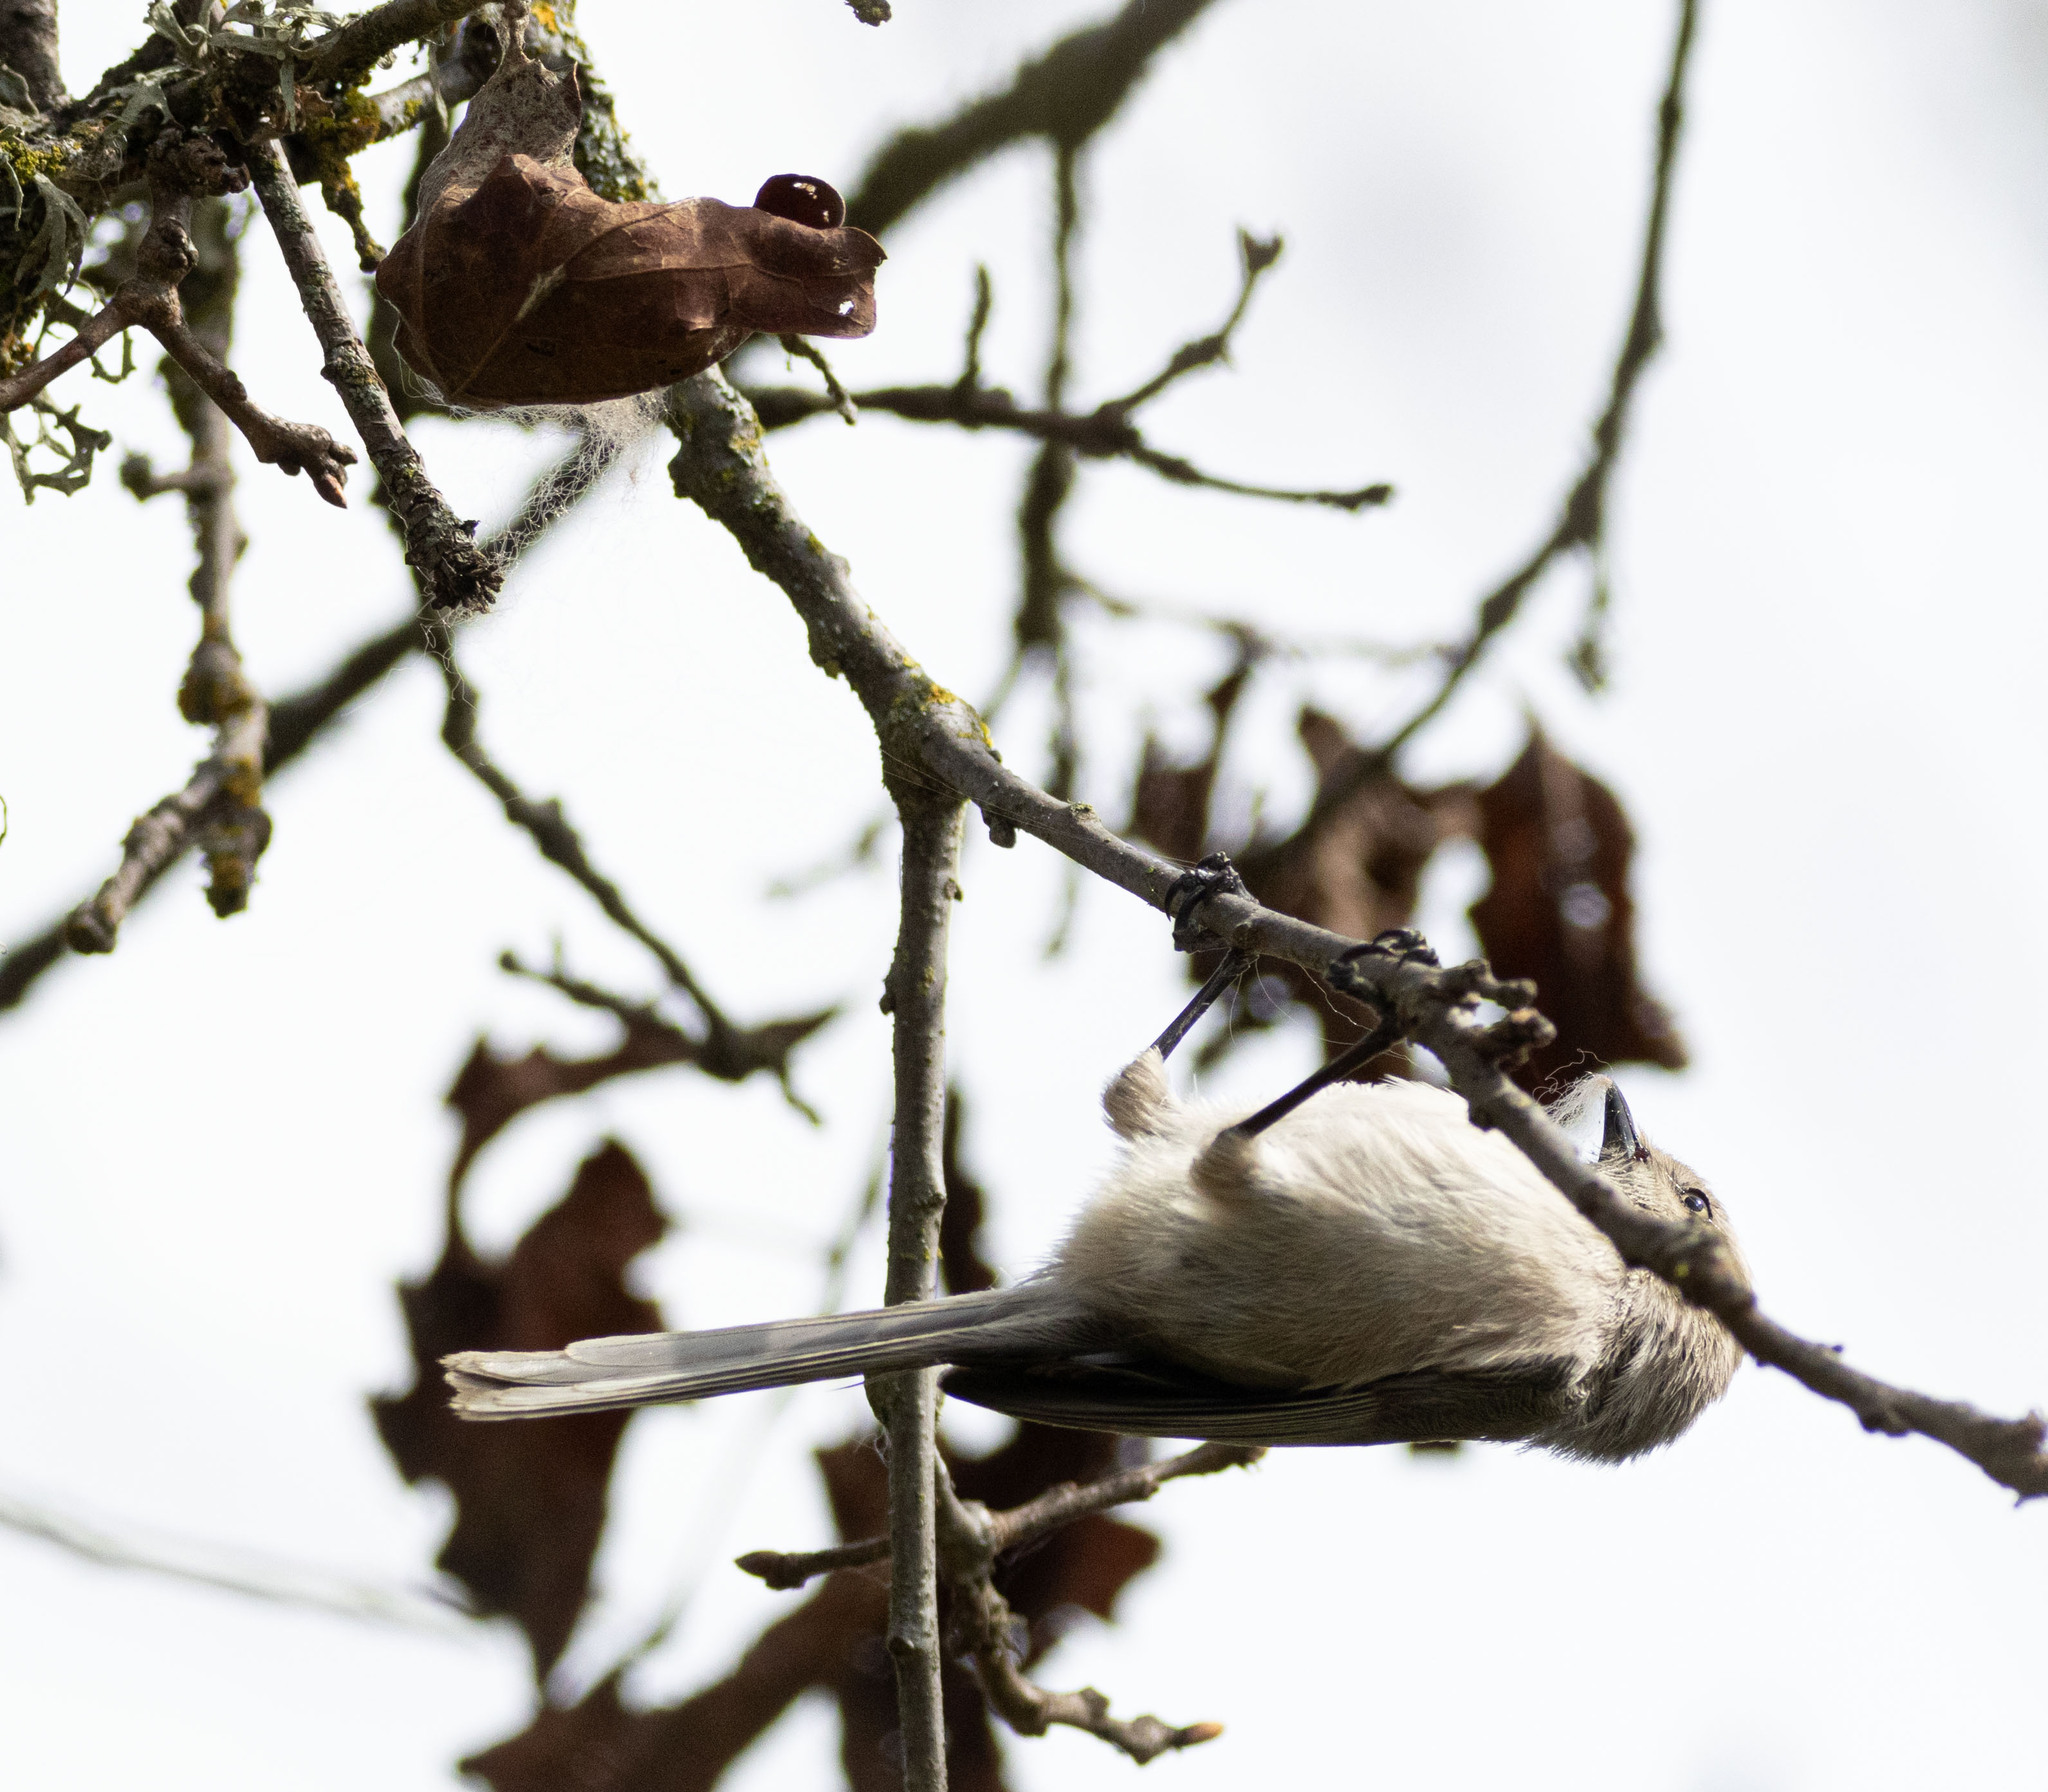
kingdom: Animalia
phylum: Chordata
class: Aves
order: Passeriformes
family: Aegithalidae
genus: Psaltriparus
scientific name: Psaltriparus minimus
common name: American bushtit
